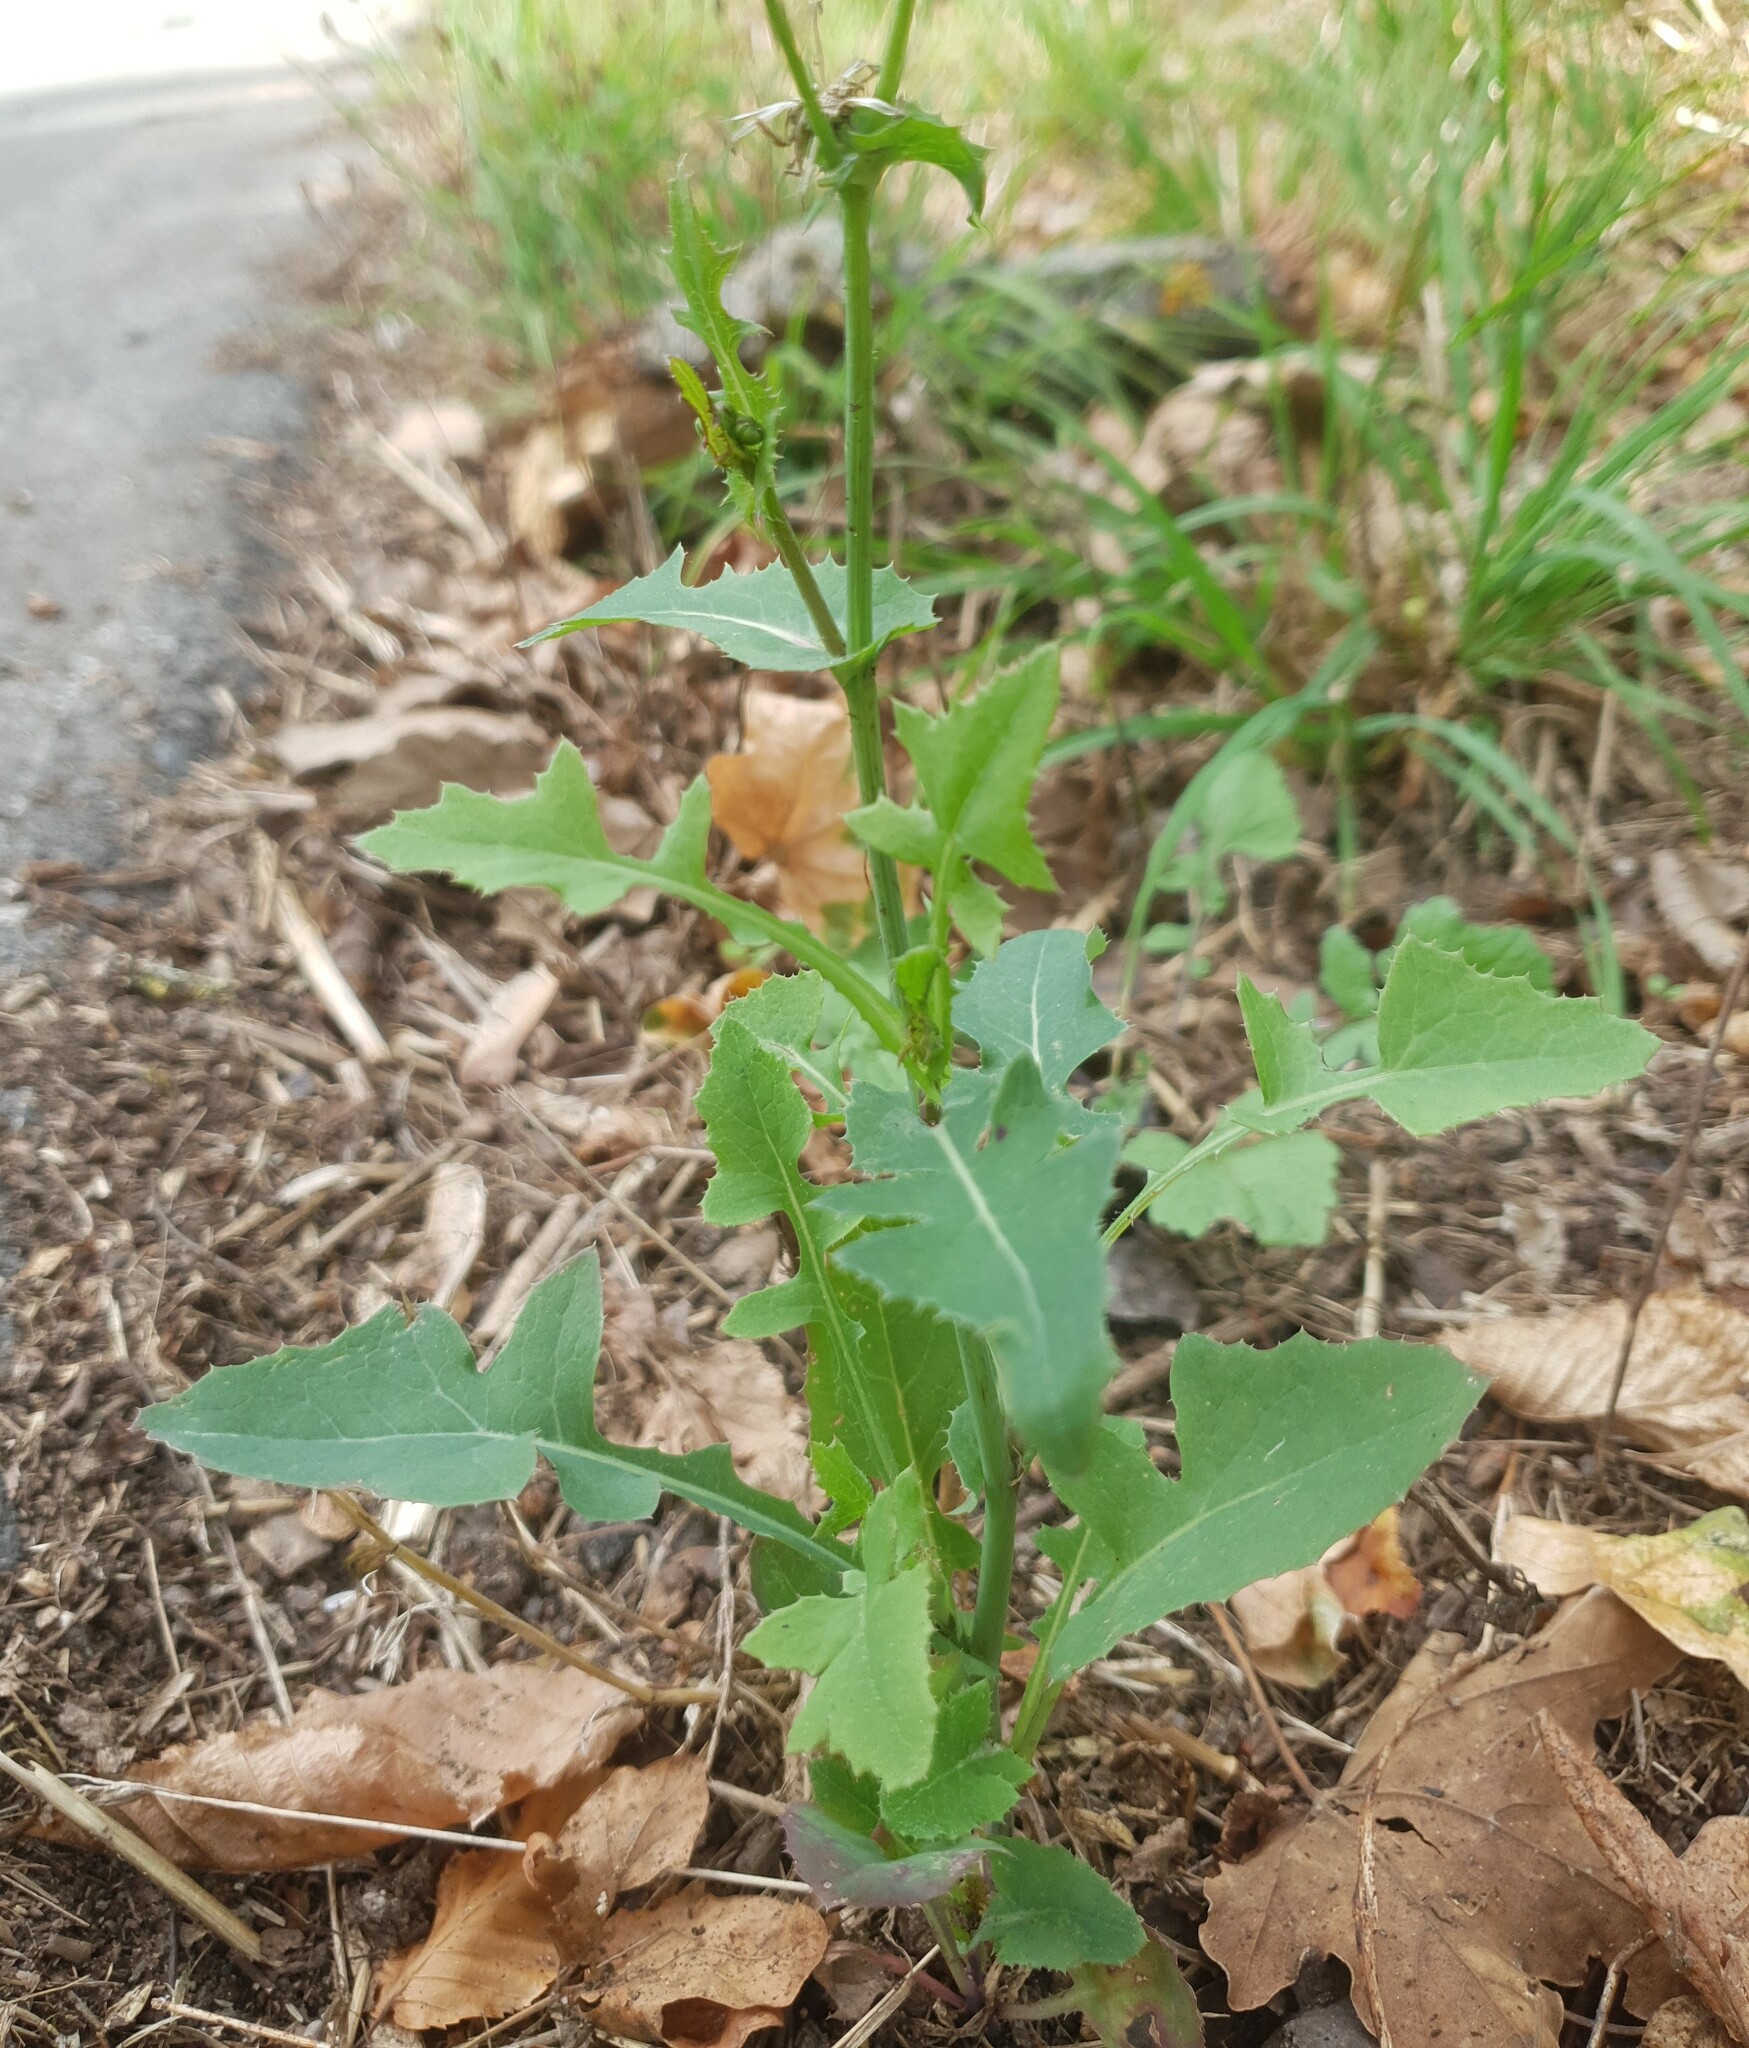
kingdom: Plantae
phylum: Tracheophyta
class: Magnoliopsida
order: Asterales
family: Asteraceae
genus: Sonchus
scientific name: Sonchus oleraceus
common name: Common sowthistle
